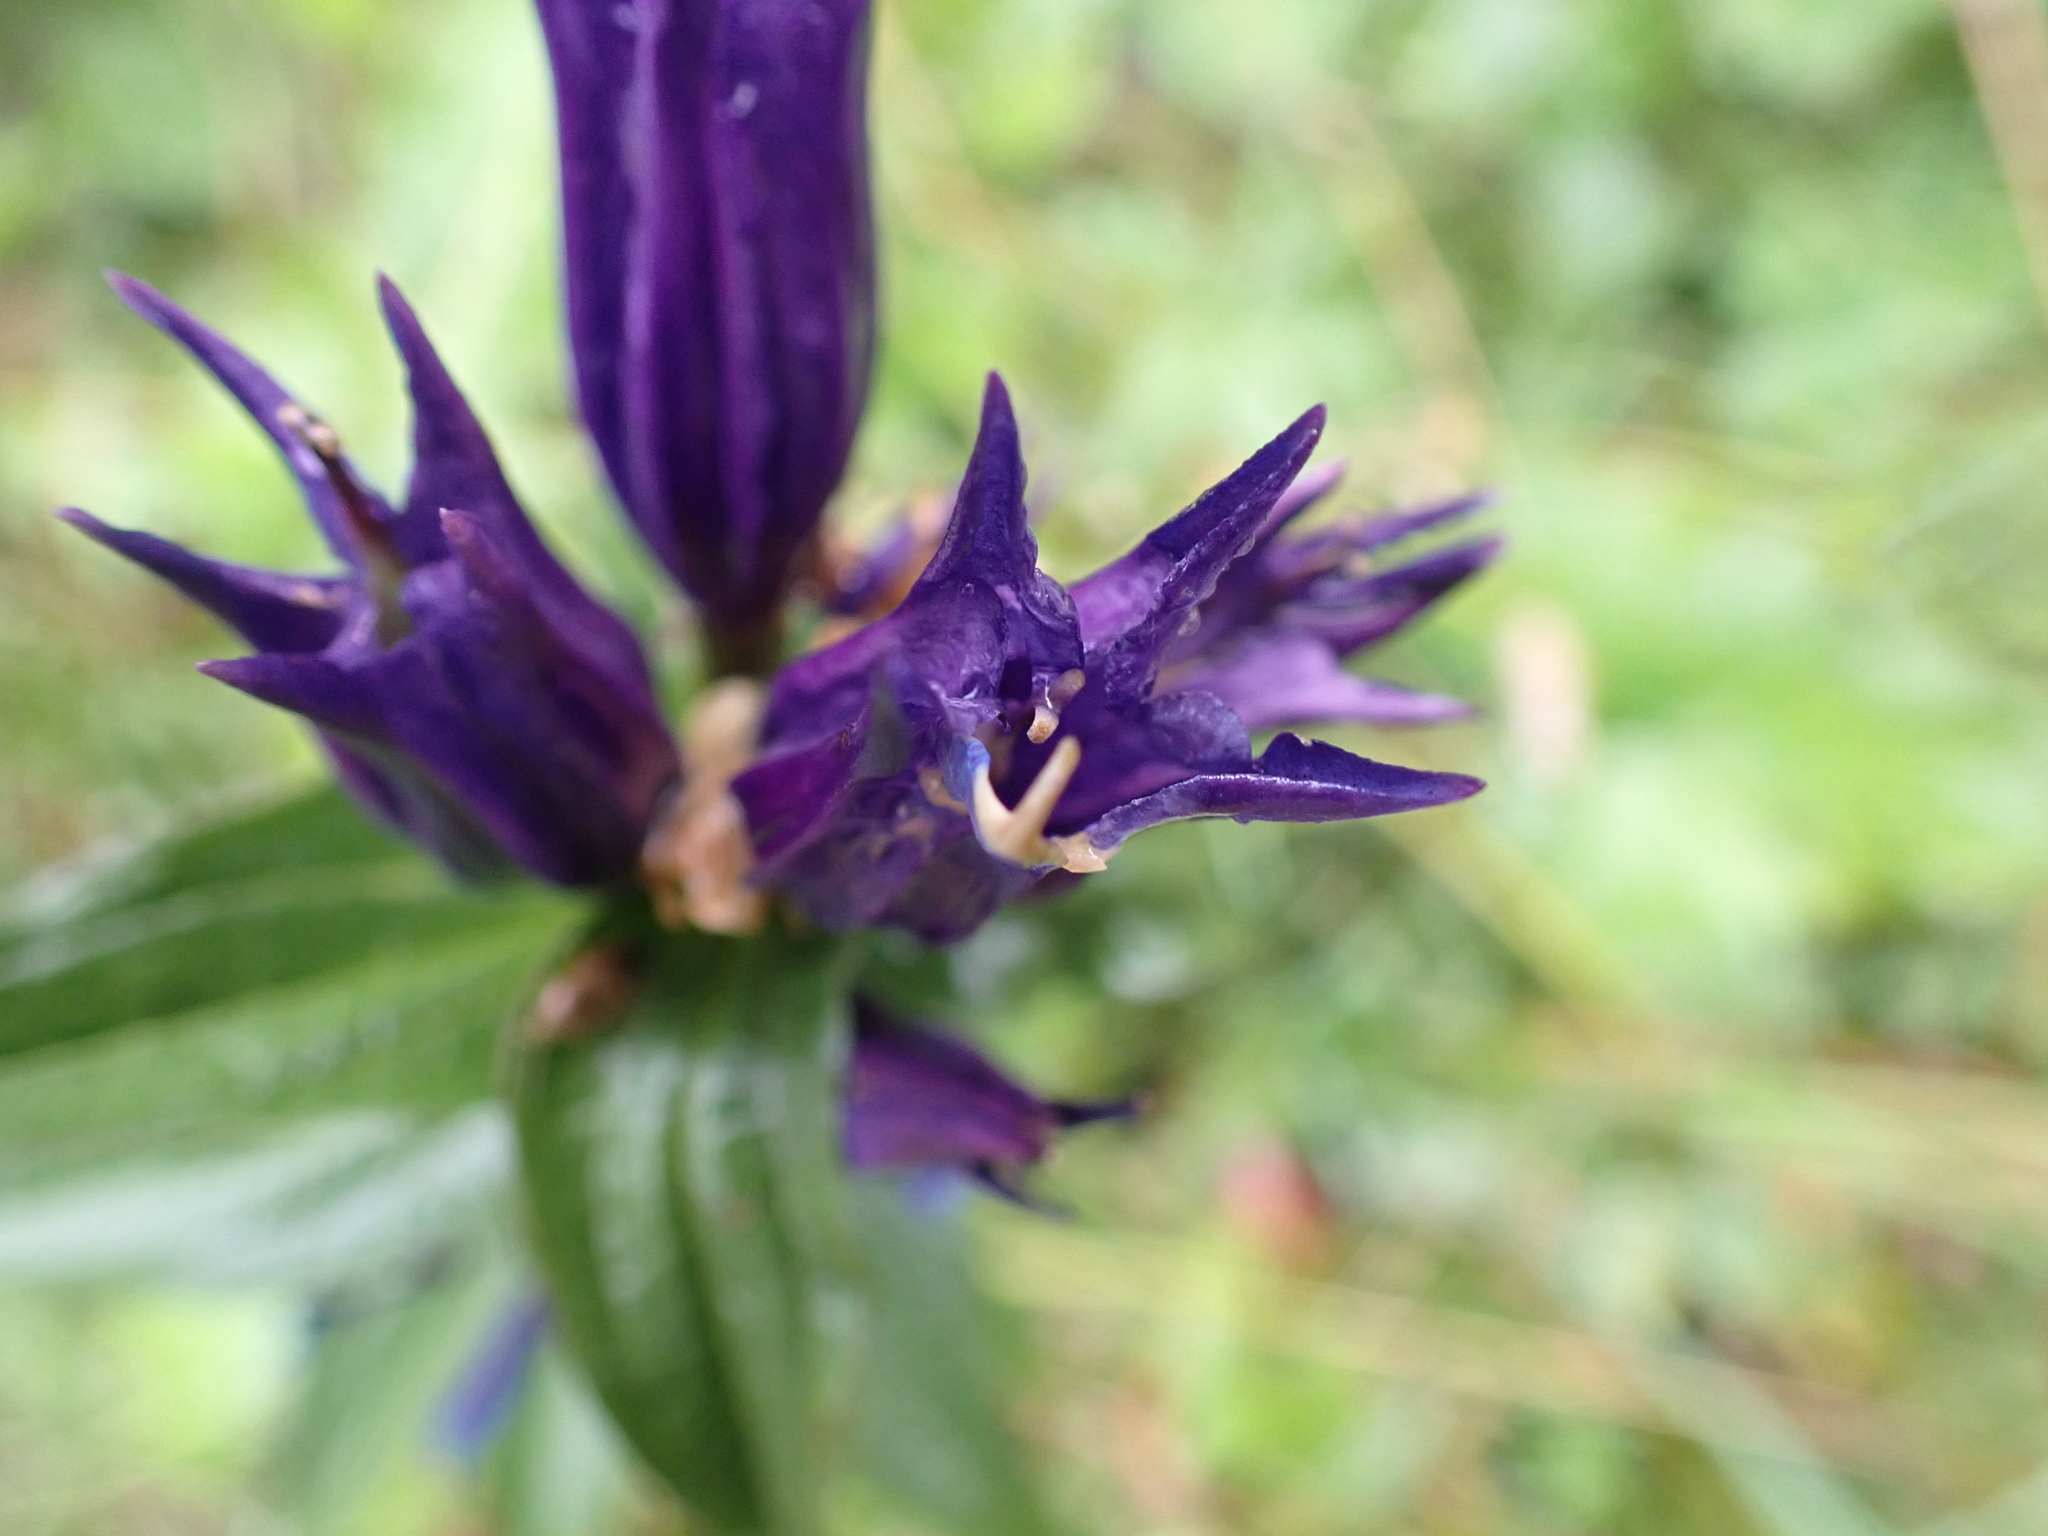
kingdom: Plantae
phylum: Tracheophyta
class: Magnoliopsida
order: Gentianales
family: Gentianaceae
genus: Gentiana
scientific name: Gentiana asclepiadea
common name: Willow gentian
